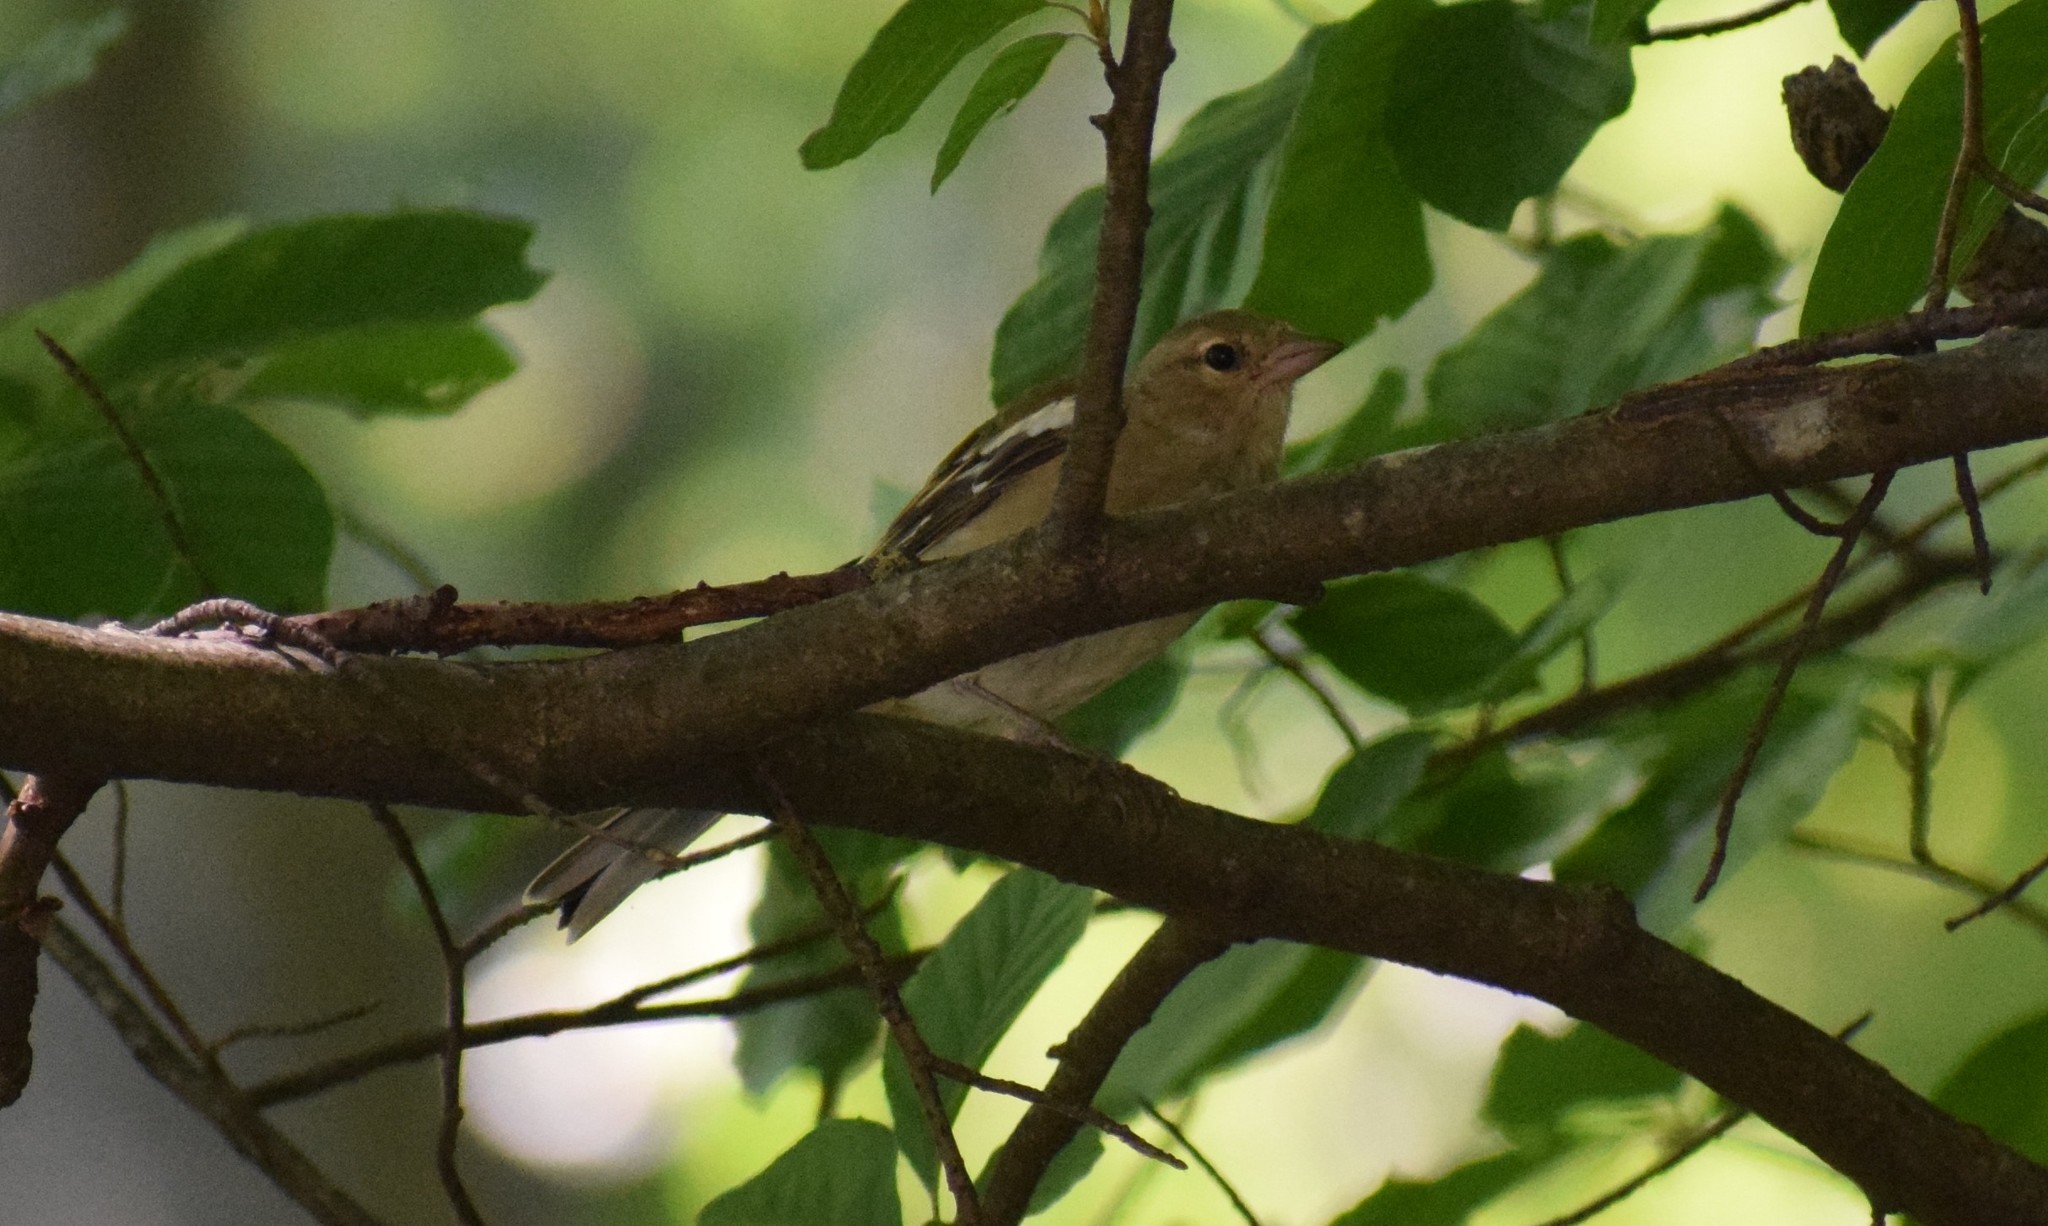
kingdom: Animalia
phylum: Chordata
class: Aves
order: Passeriformes
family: Fringillidae
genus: Fringilla
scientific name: Fringilla coelebs
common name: Common chaffinch
